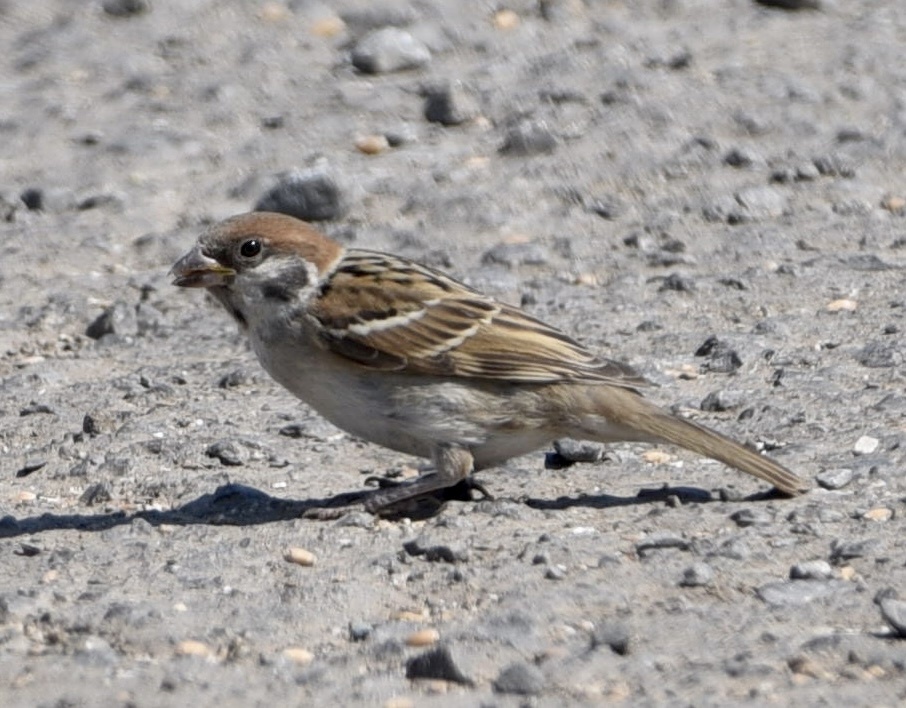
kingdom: Animalia
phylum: Chordata
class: Aves
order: Passeriformes
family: Passeridae
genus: Passer
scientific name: Passer montanus
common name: Eurasian tree sparrow
